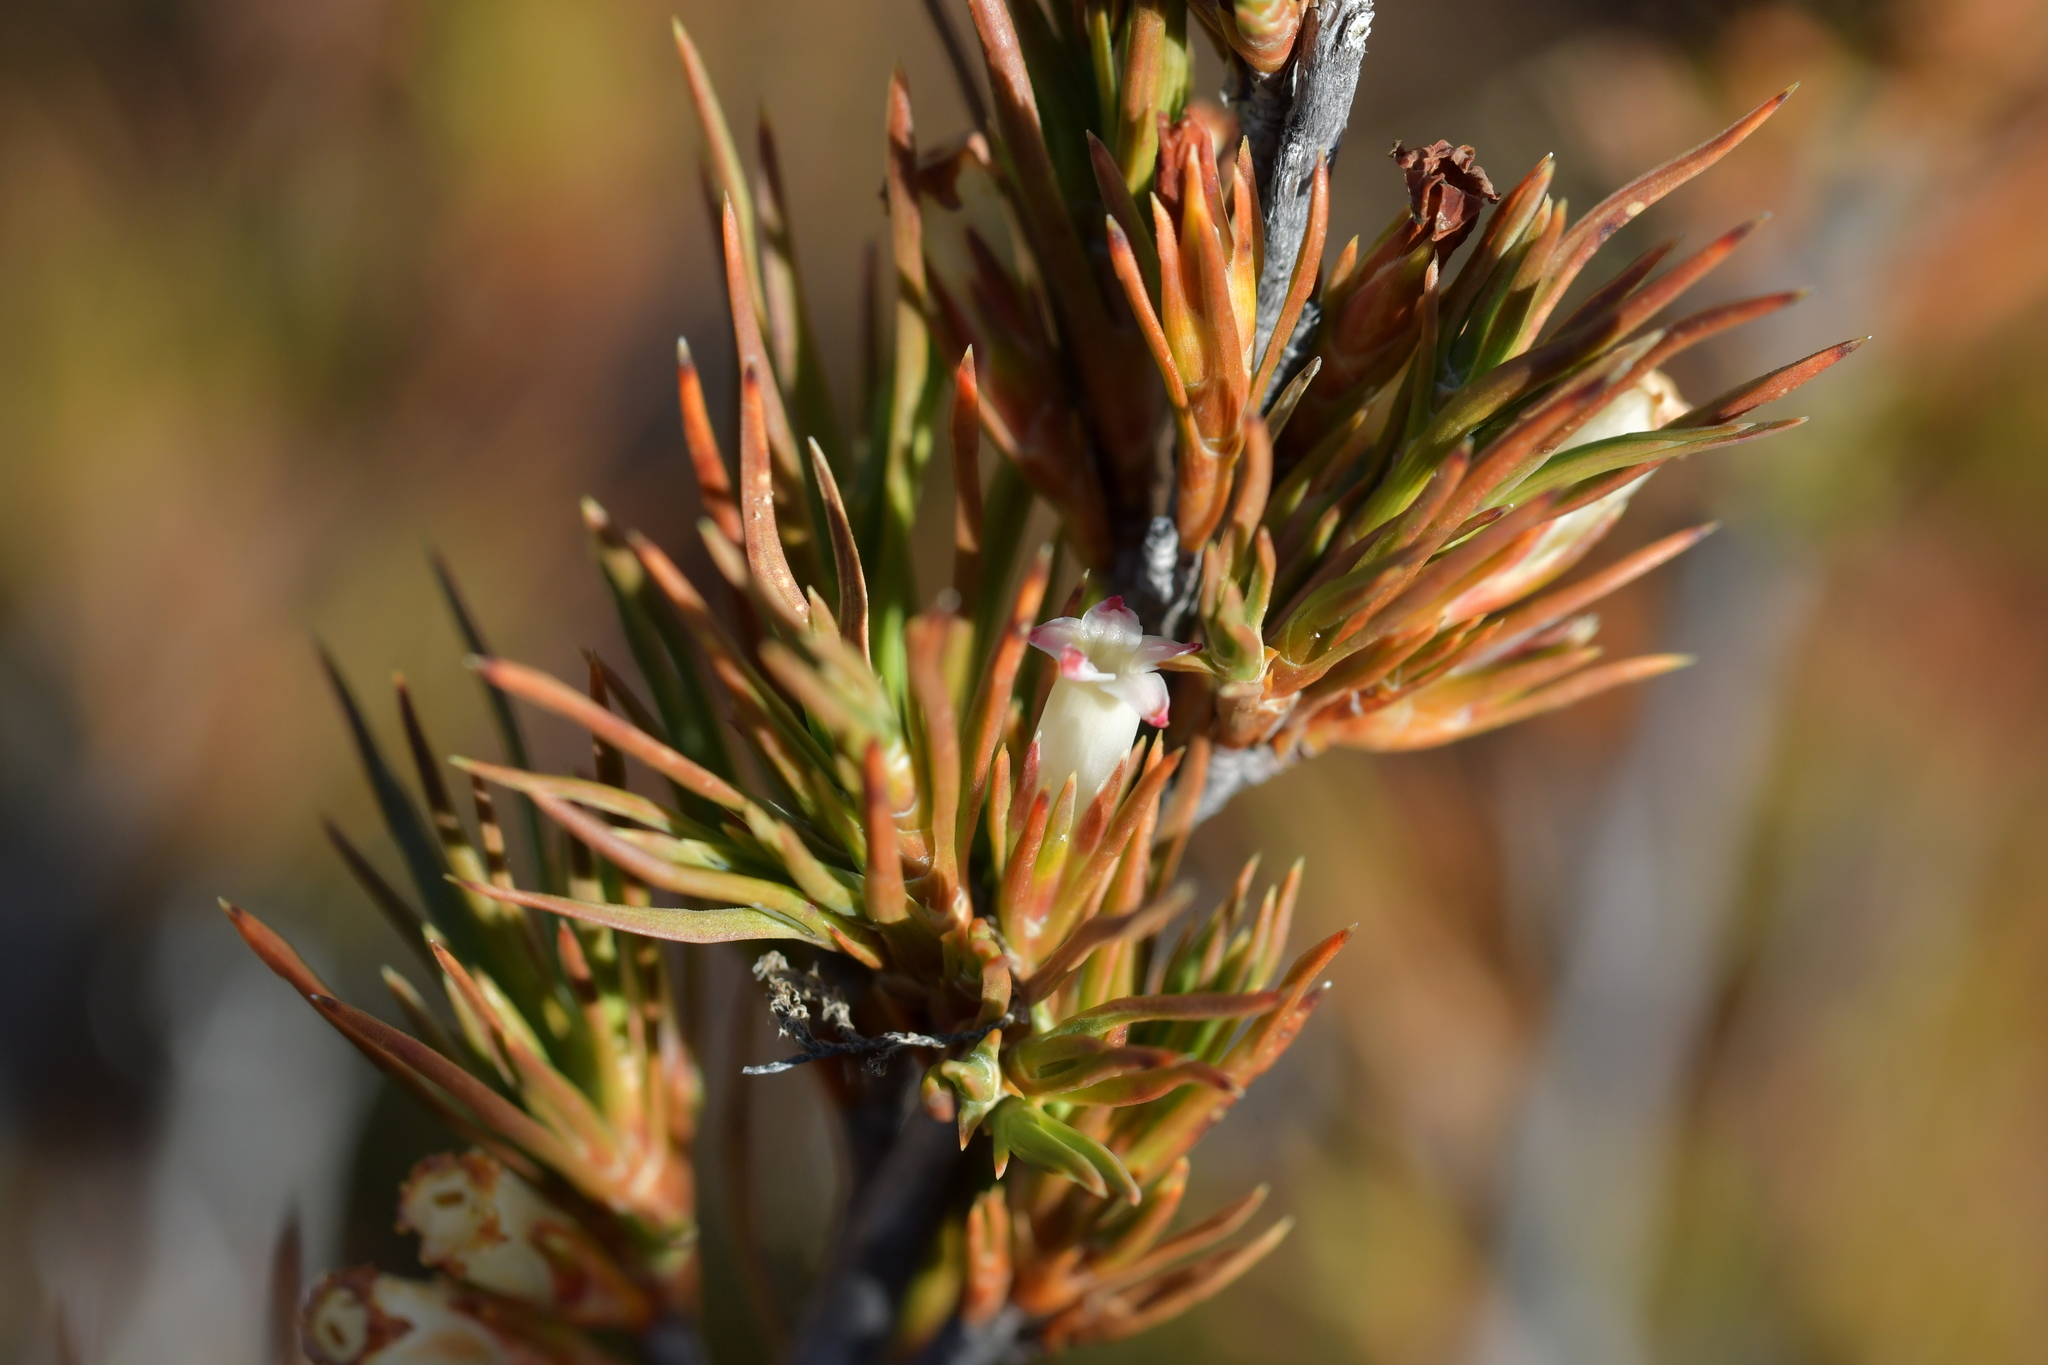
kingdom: Plantae
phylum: Tracheophyta
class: Magnoliopsida
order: Ericales
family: Ericaceae
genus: Dracophyllum
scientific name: Dracophyllum rosmarinifolium
